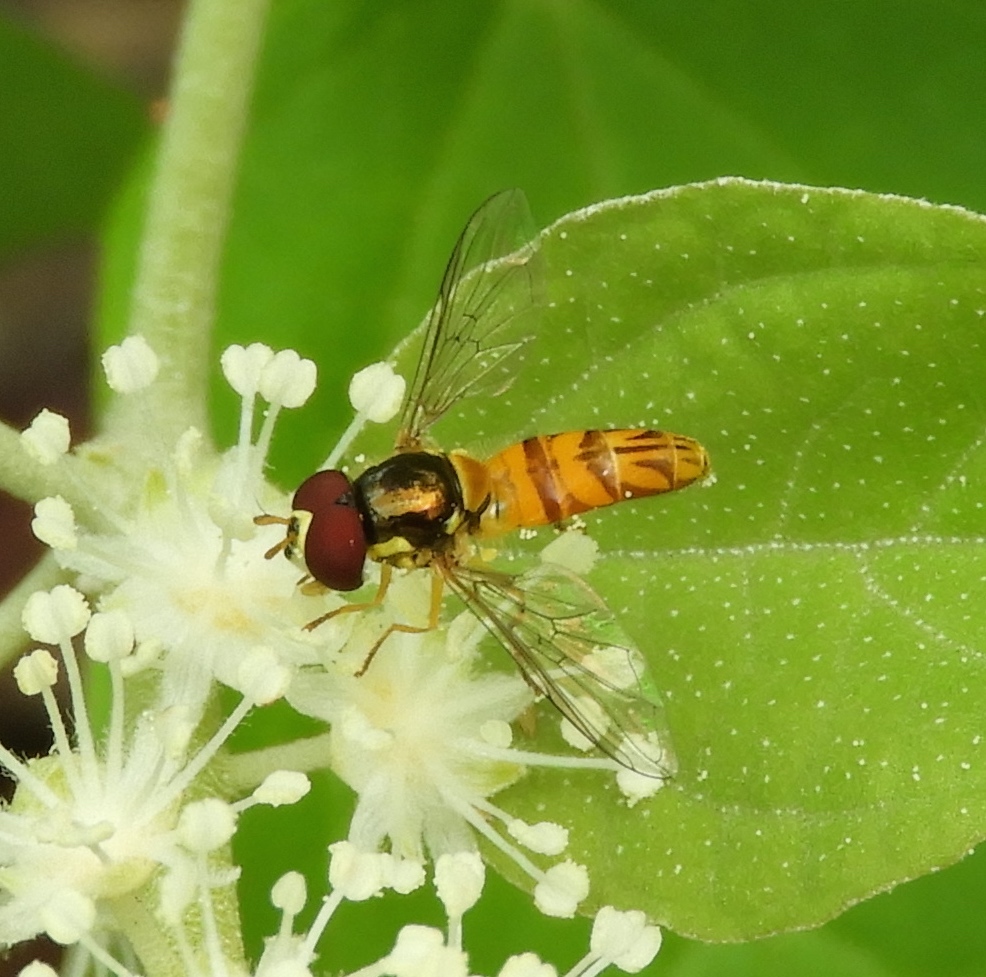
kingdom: Animalia
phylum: Arthropoda
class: Insecta
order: Diptera
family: Syrphidae
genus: Allograpta
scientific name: Allograpta
